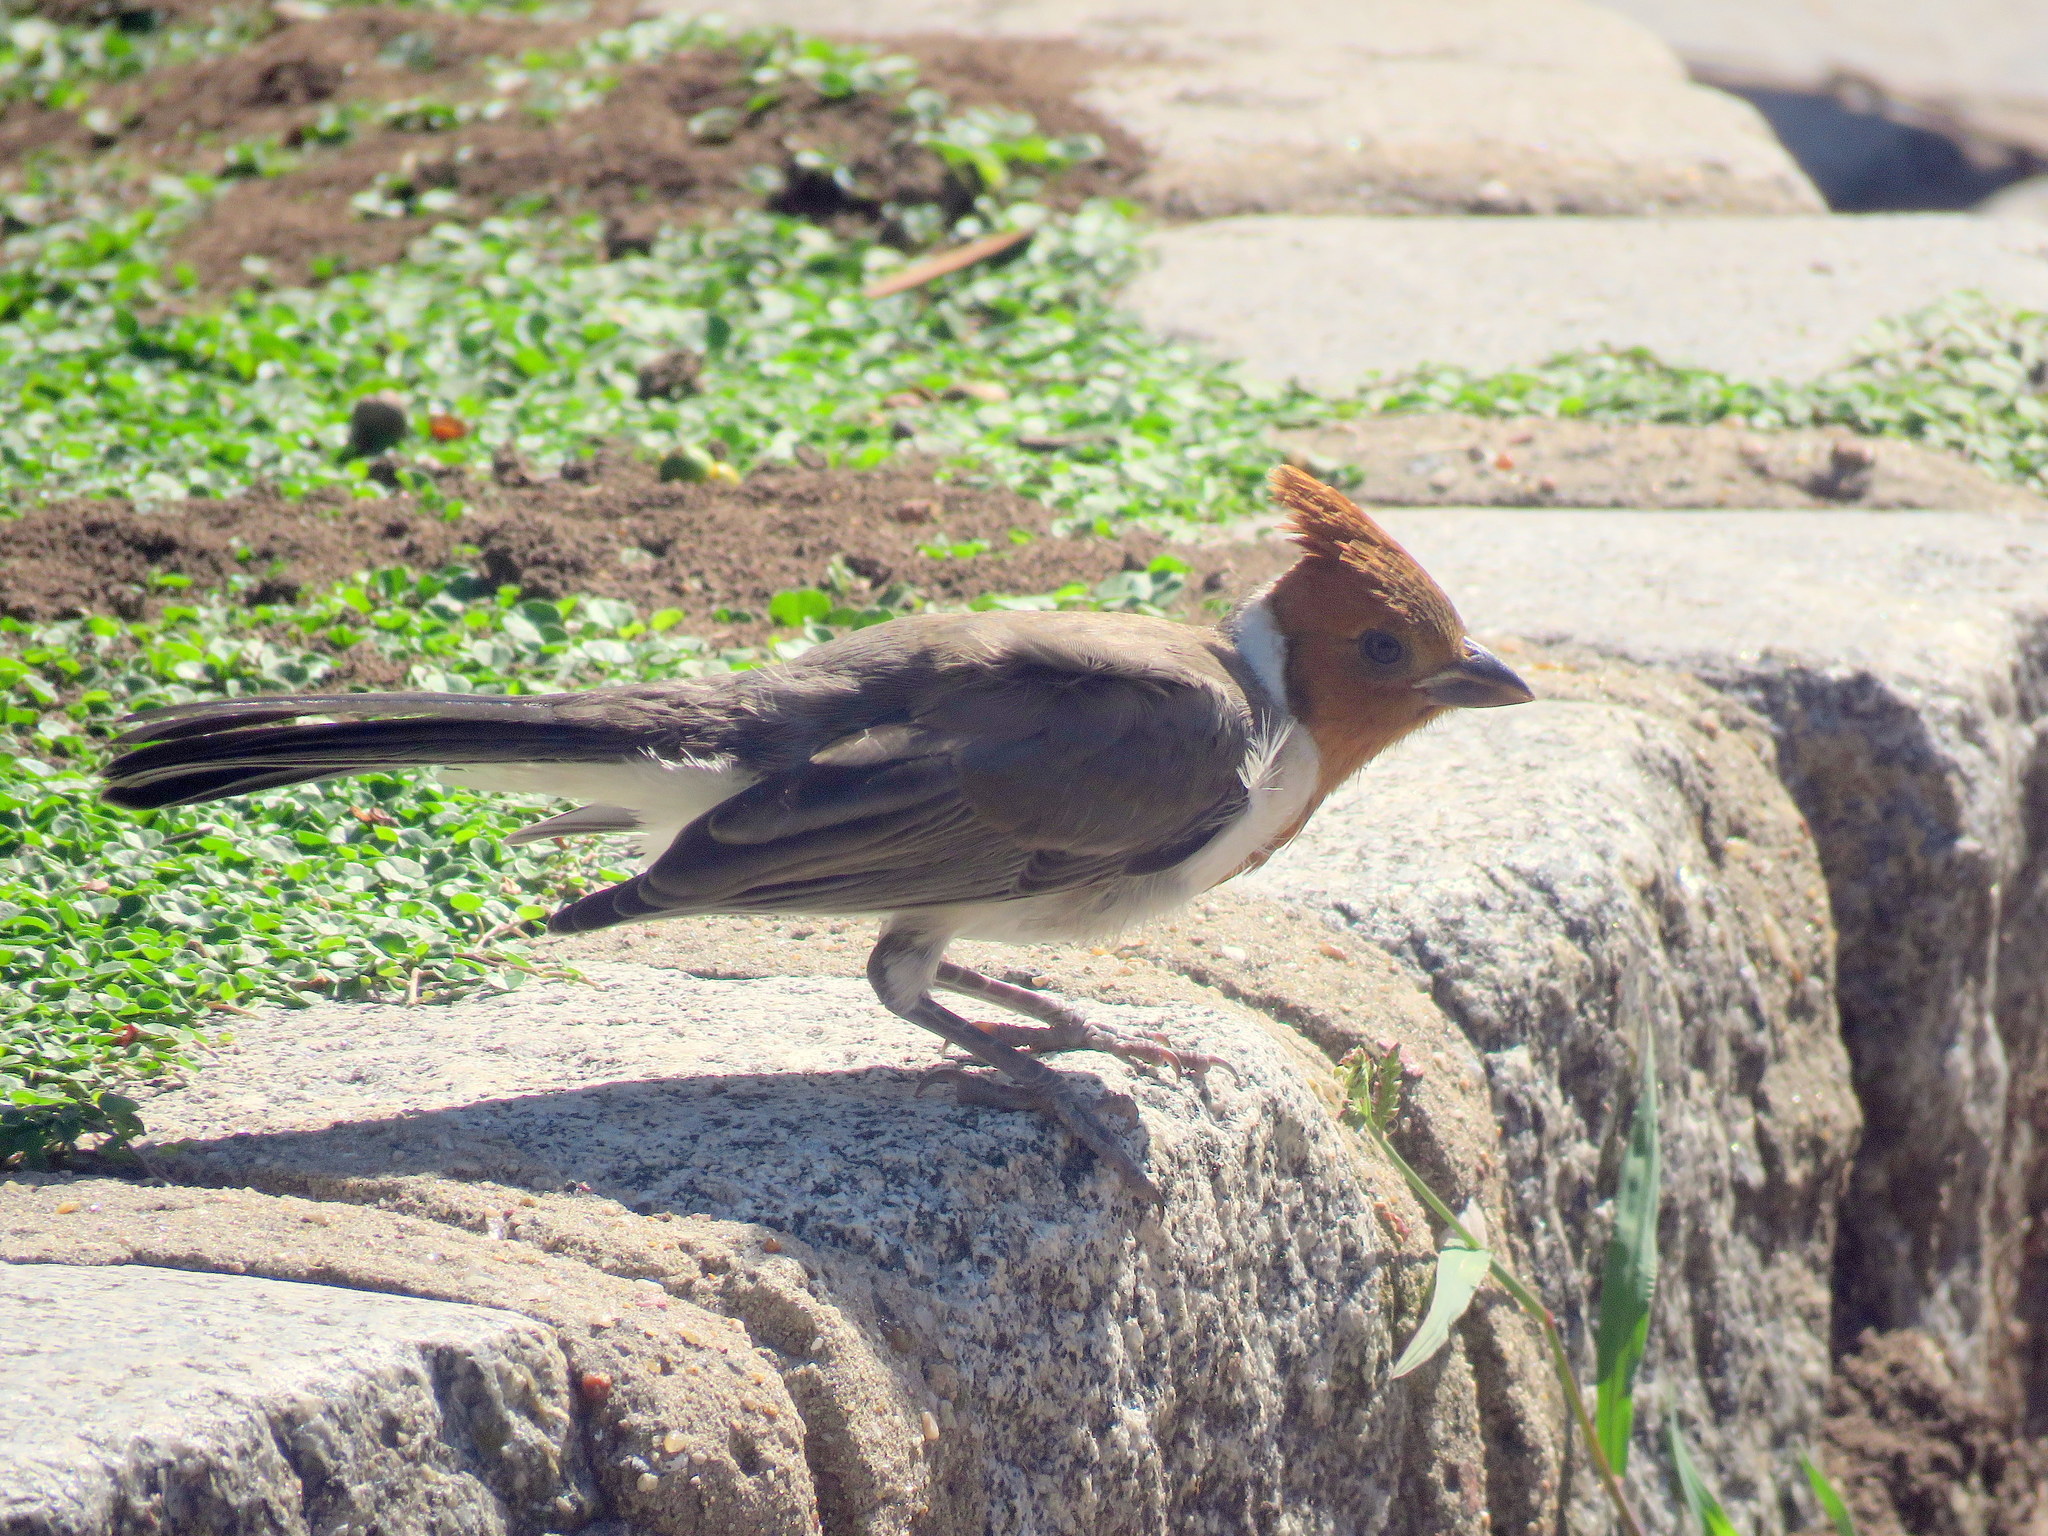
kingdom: Animalia
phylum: Chordata
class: Aves
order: Passeriformes
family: Thraupidae
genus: Paroaria
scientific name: Paroaria coronata
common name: Red-crested cardinal
